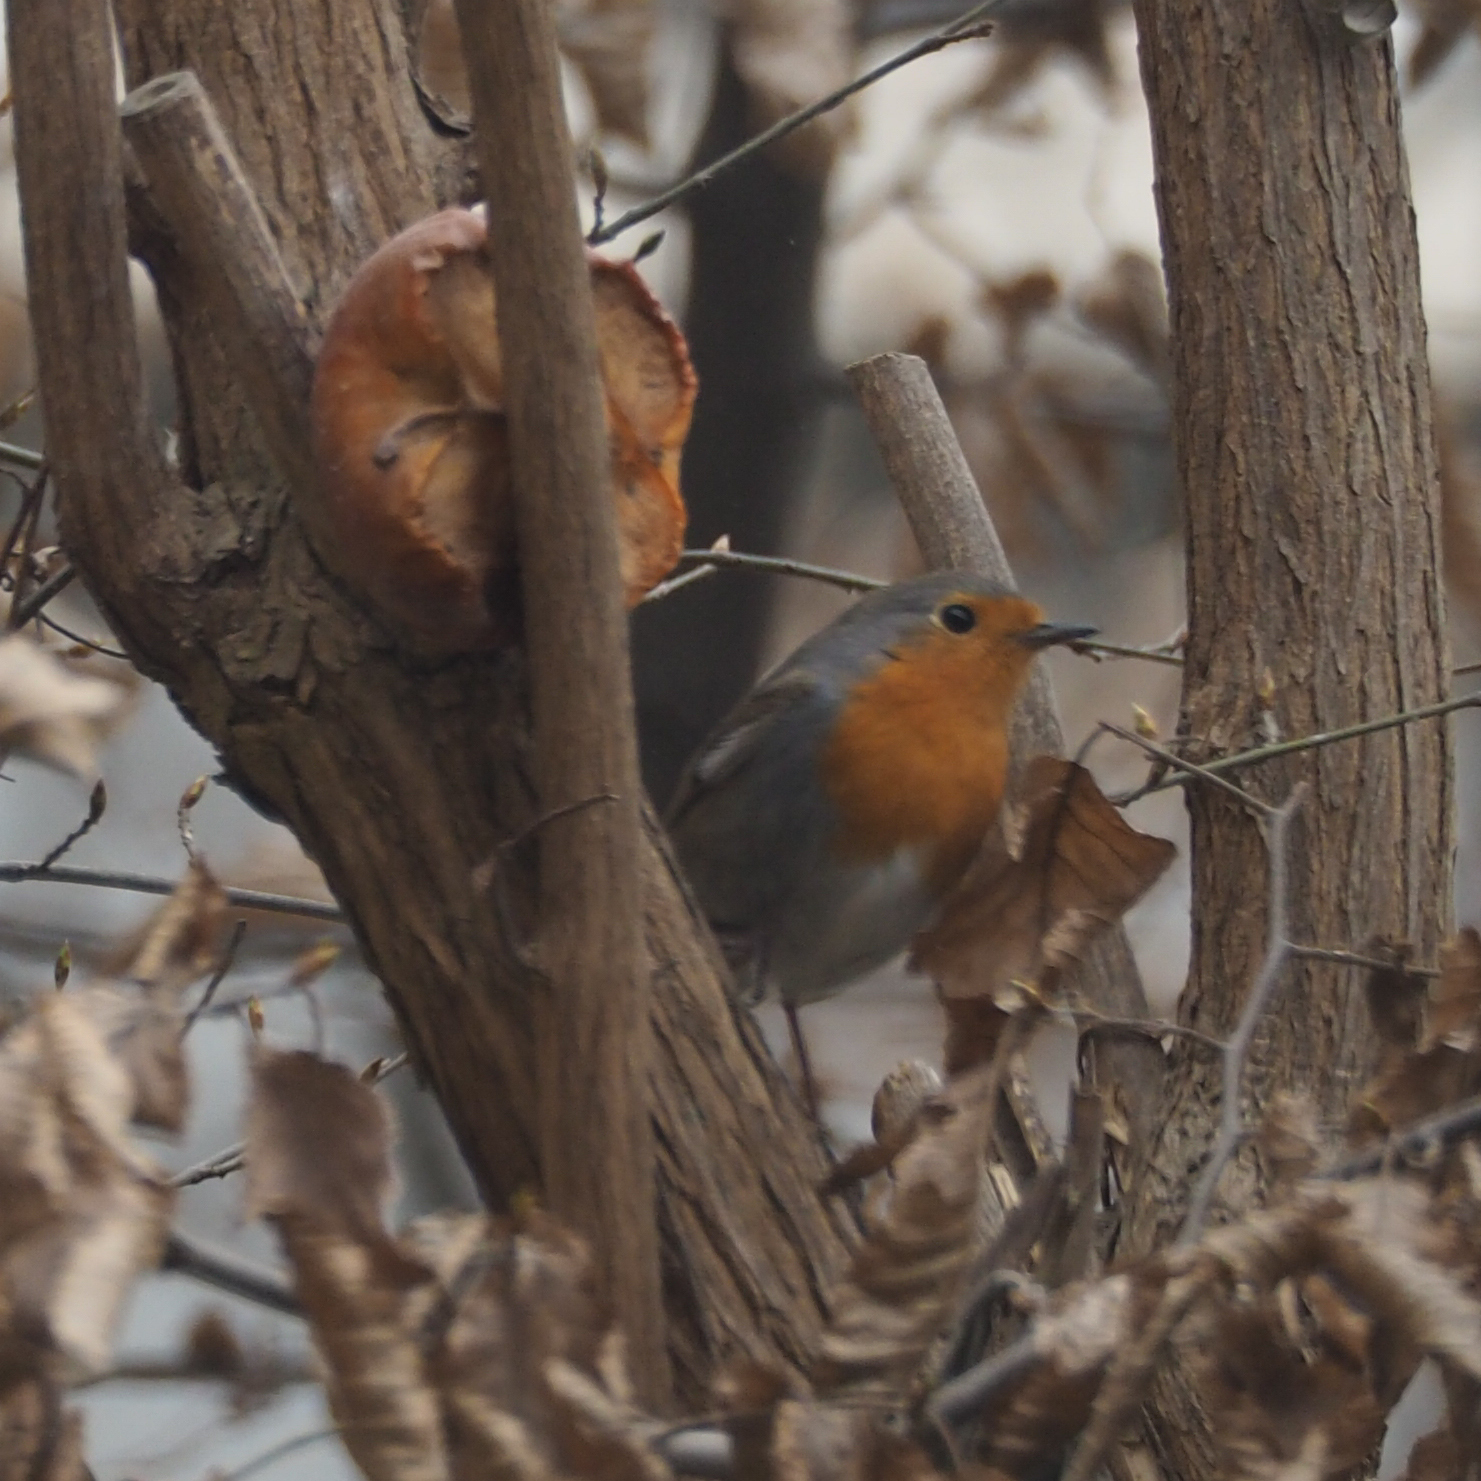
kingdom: Animalia
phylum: Chordata
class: Aves
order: Passeriformes
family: Muscicapidae
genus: Erithacus
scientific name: Erithacus rubecula
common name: European robin
